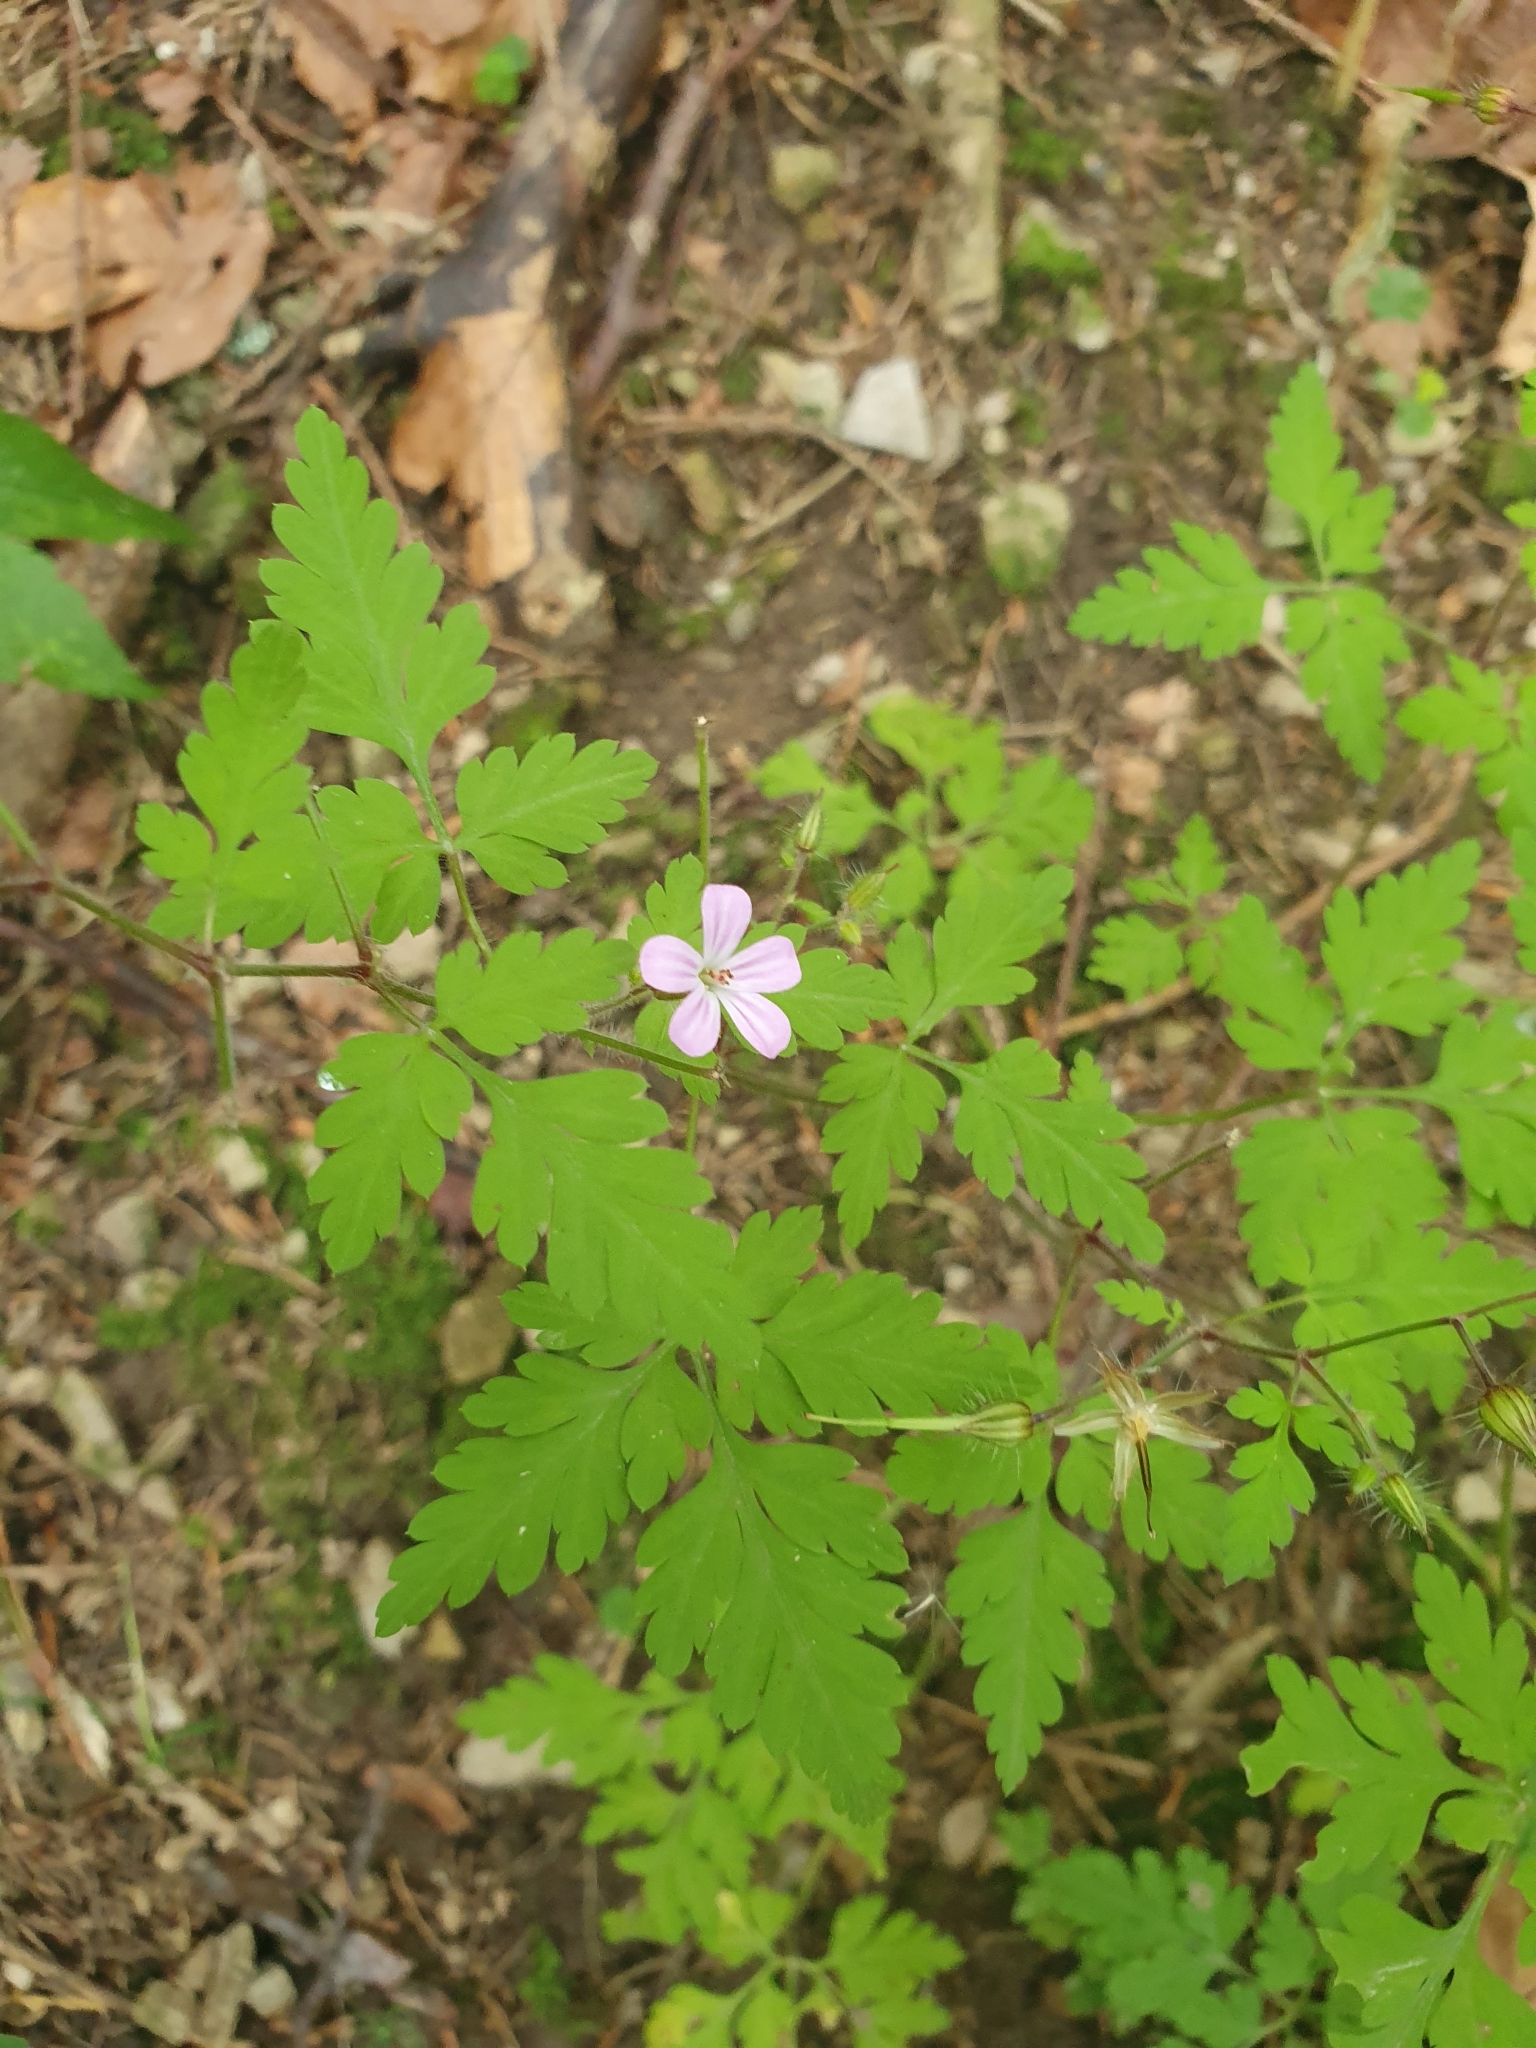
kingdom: Plantae
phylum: Tracheophyta
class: Magnoliopsida
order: Geraniales
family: Geraniaceae
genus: Geranium
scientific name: Geranium robertianum
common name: Herb-robert
